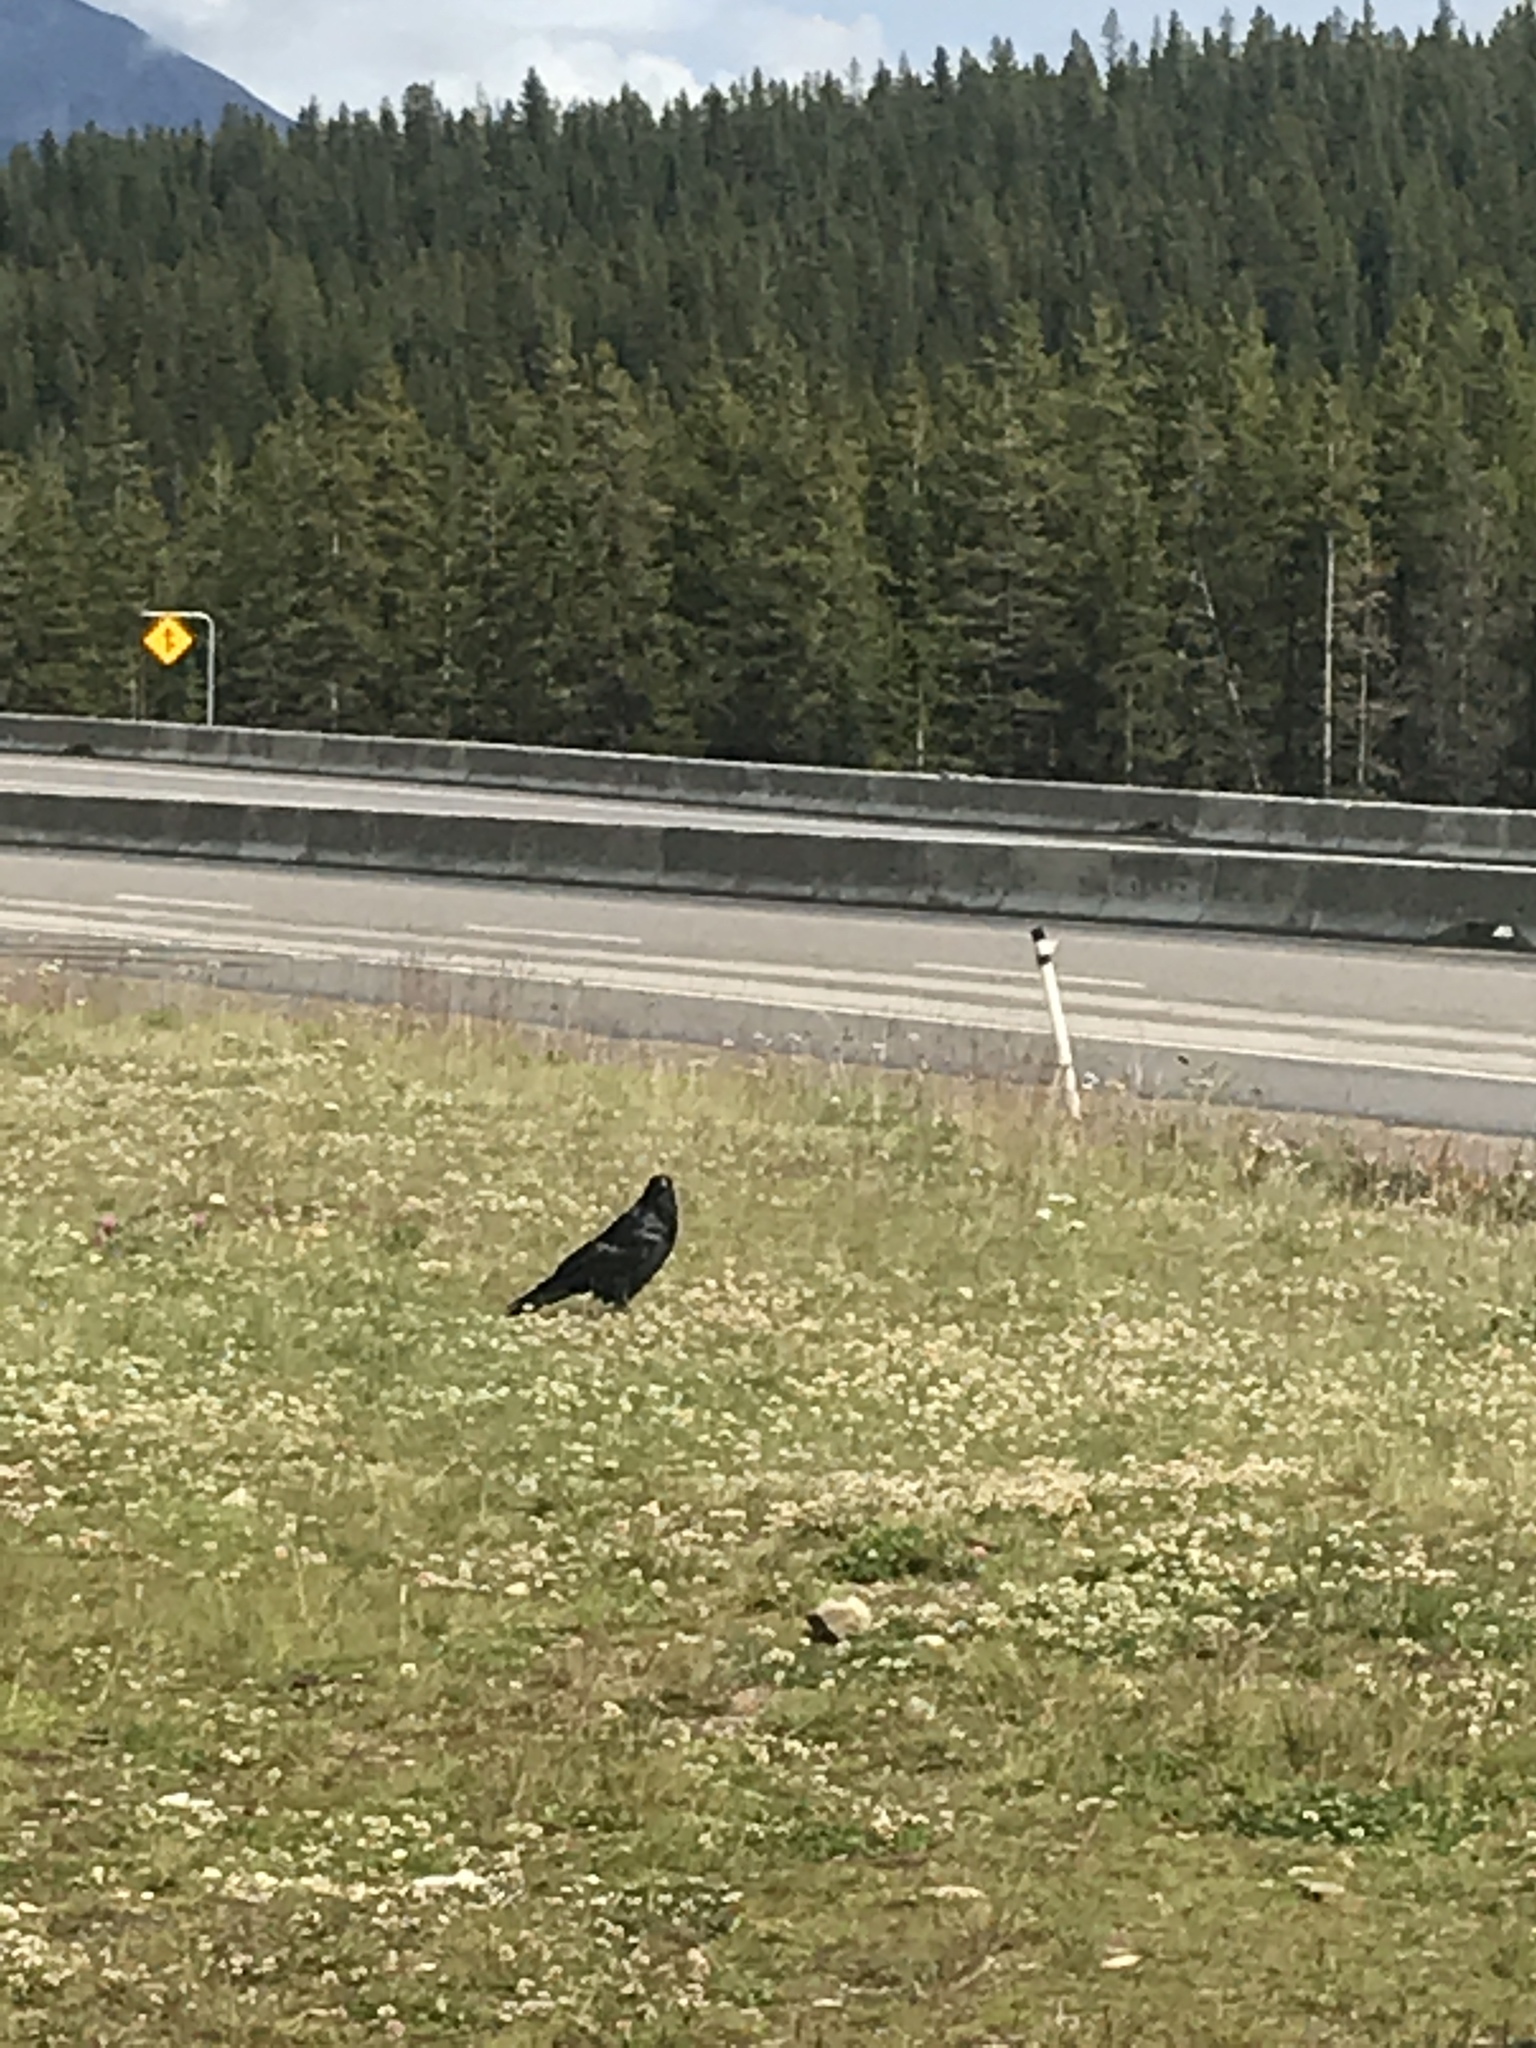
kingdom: Animalia
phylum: Chordata
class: Aves
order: Passeriformes
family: Corvidae
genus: Corvus
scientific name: Corvus corax
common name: Common raven
